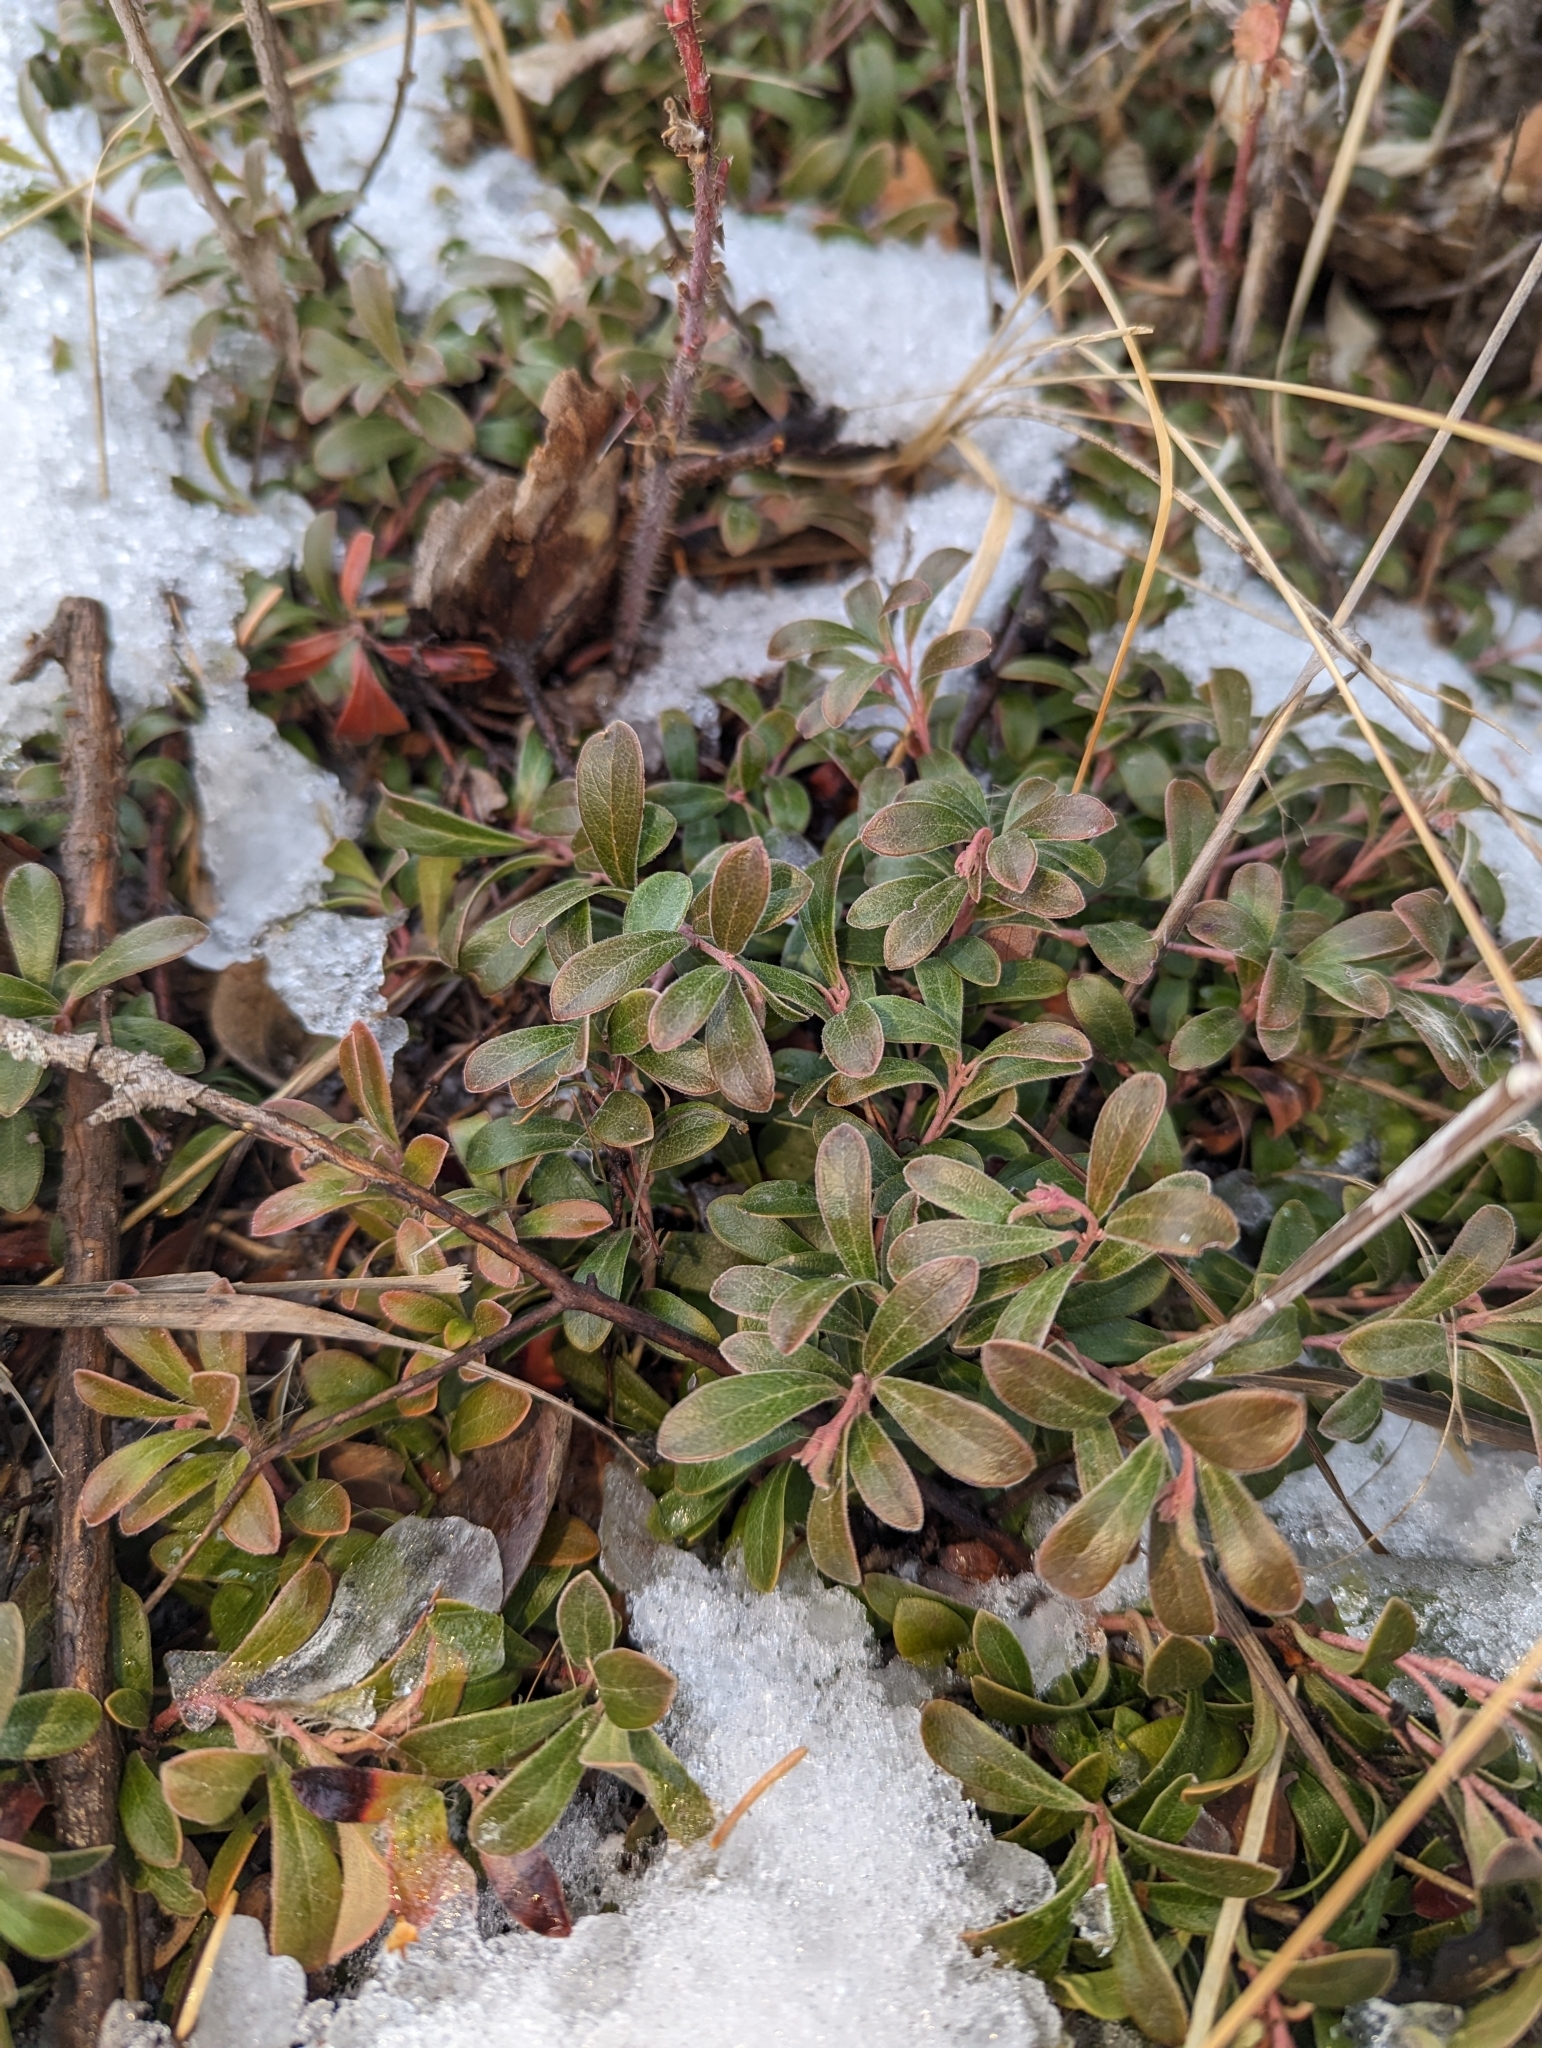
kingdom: Plantae
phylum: Tracheophyta
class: Magnoliopsida
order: Ericales
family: Ericaceae
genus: Arctostaphylos
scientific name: Arctostaphylos uva-ursi
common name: Bearberry
